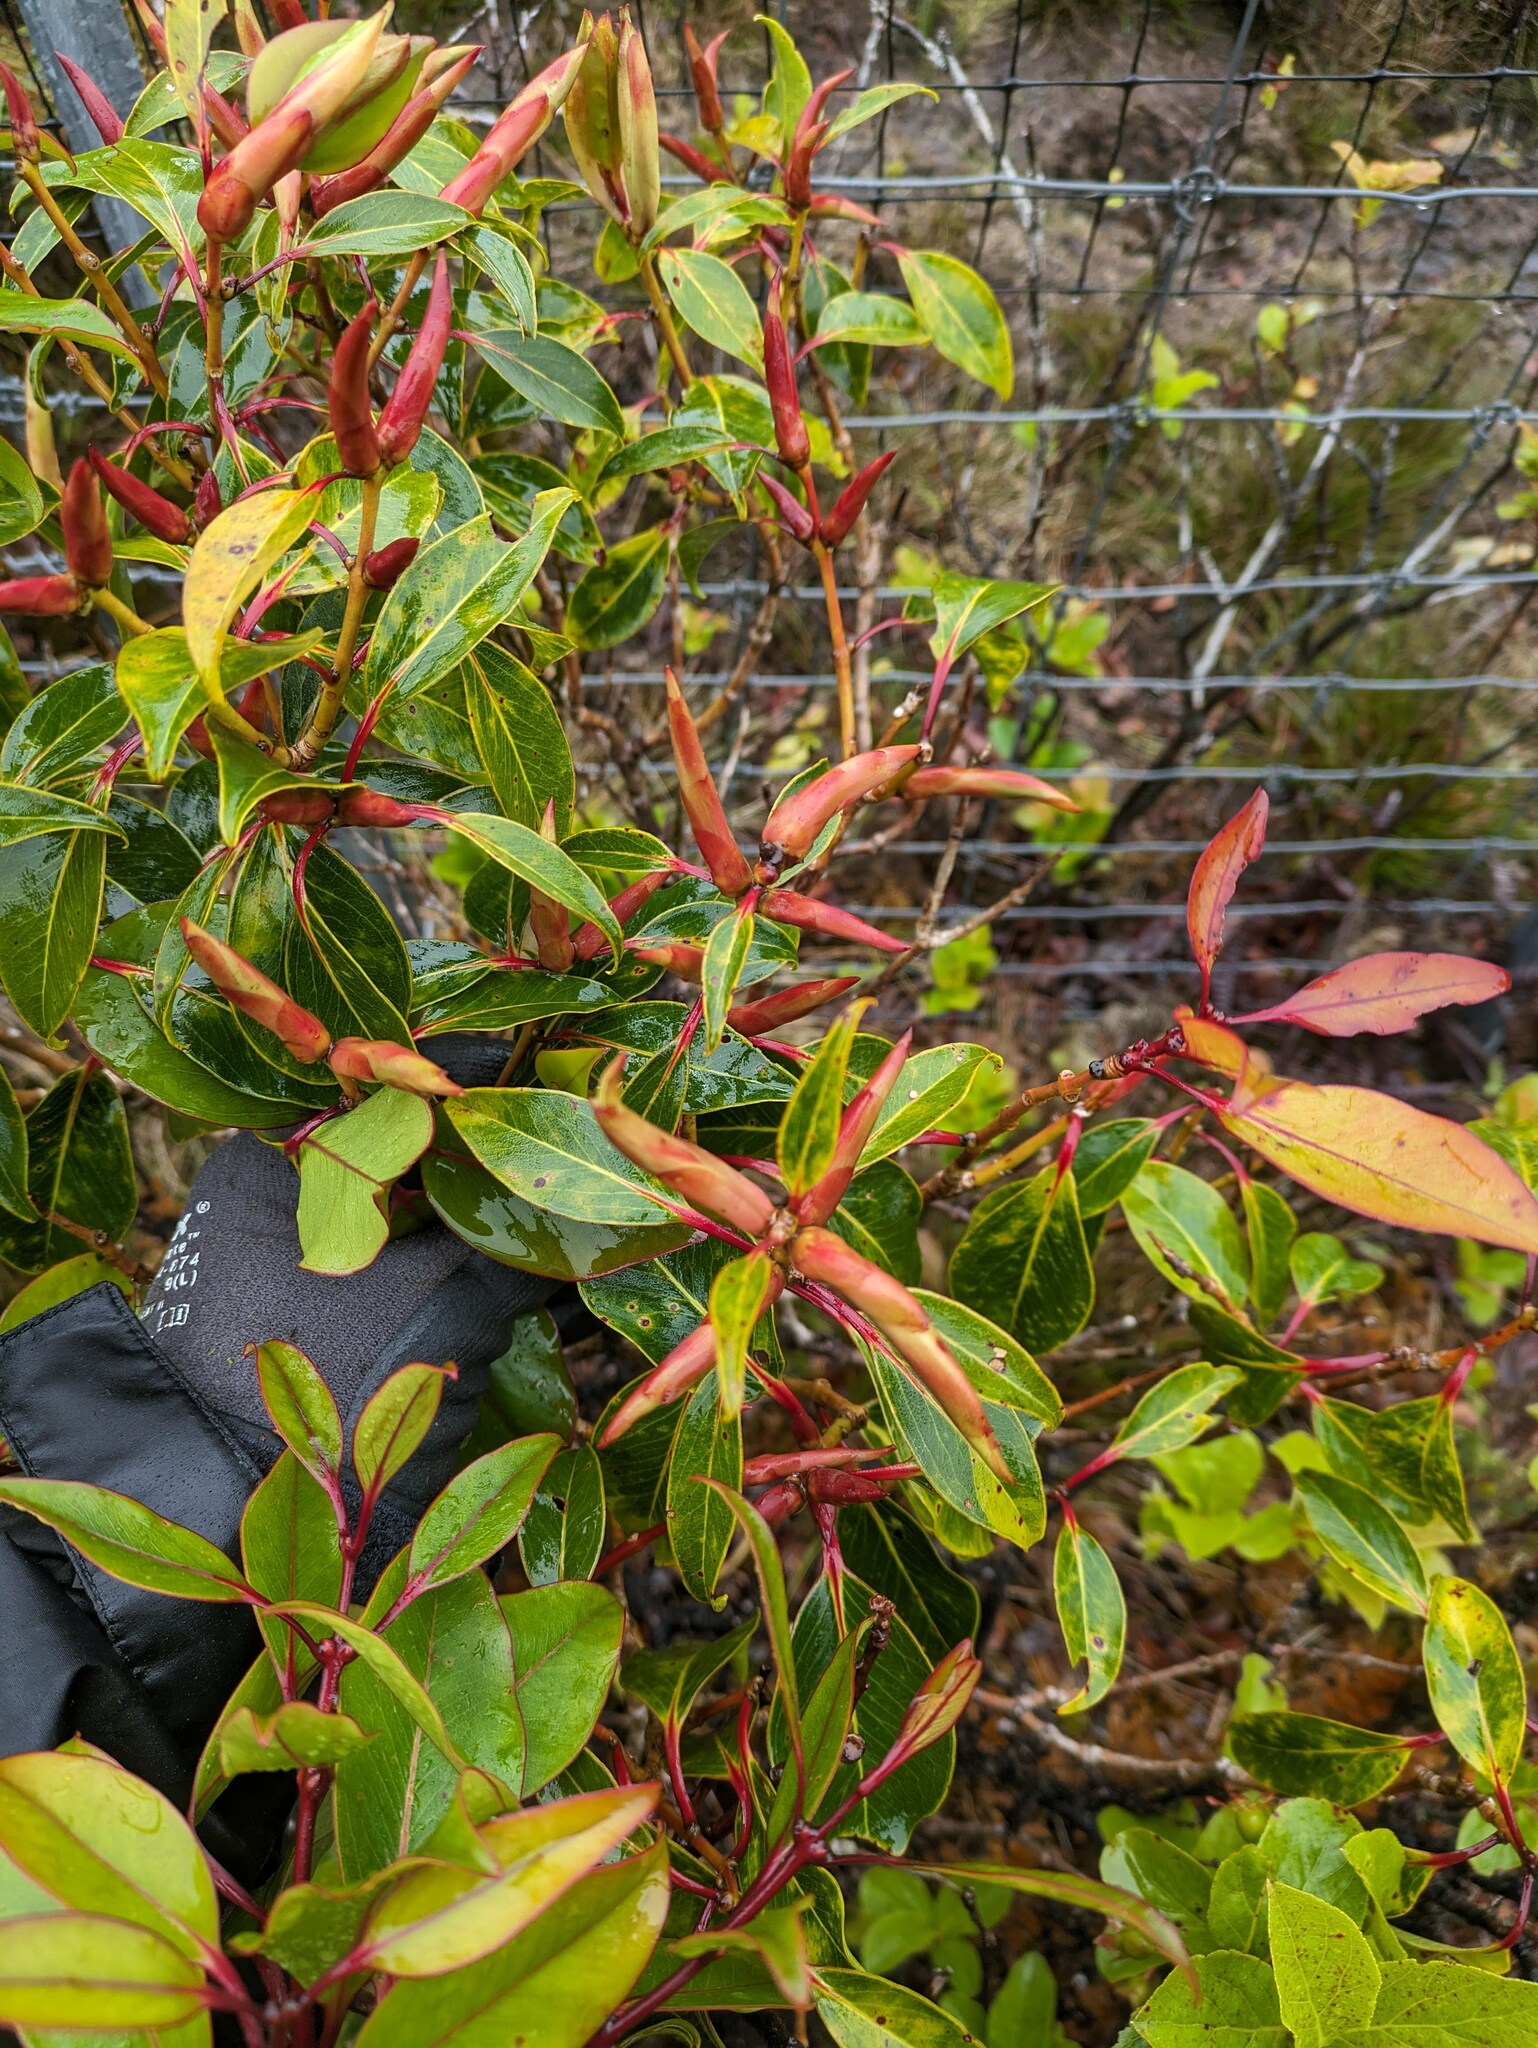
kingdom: Plantae
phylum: Tracheophyta
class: Magnoliopsida
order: Myrtales
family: Myrtaceae
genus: Metrosideros
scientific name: Metrosideros waialealae
